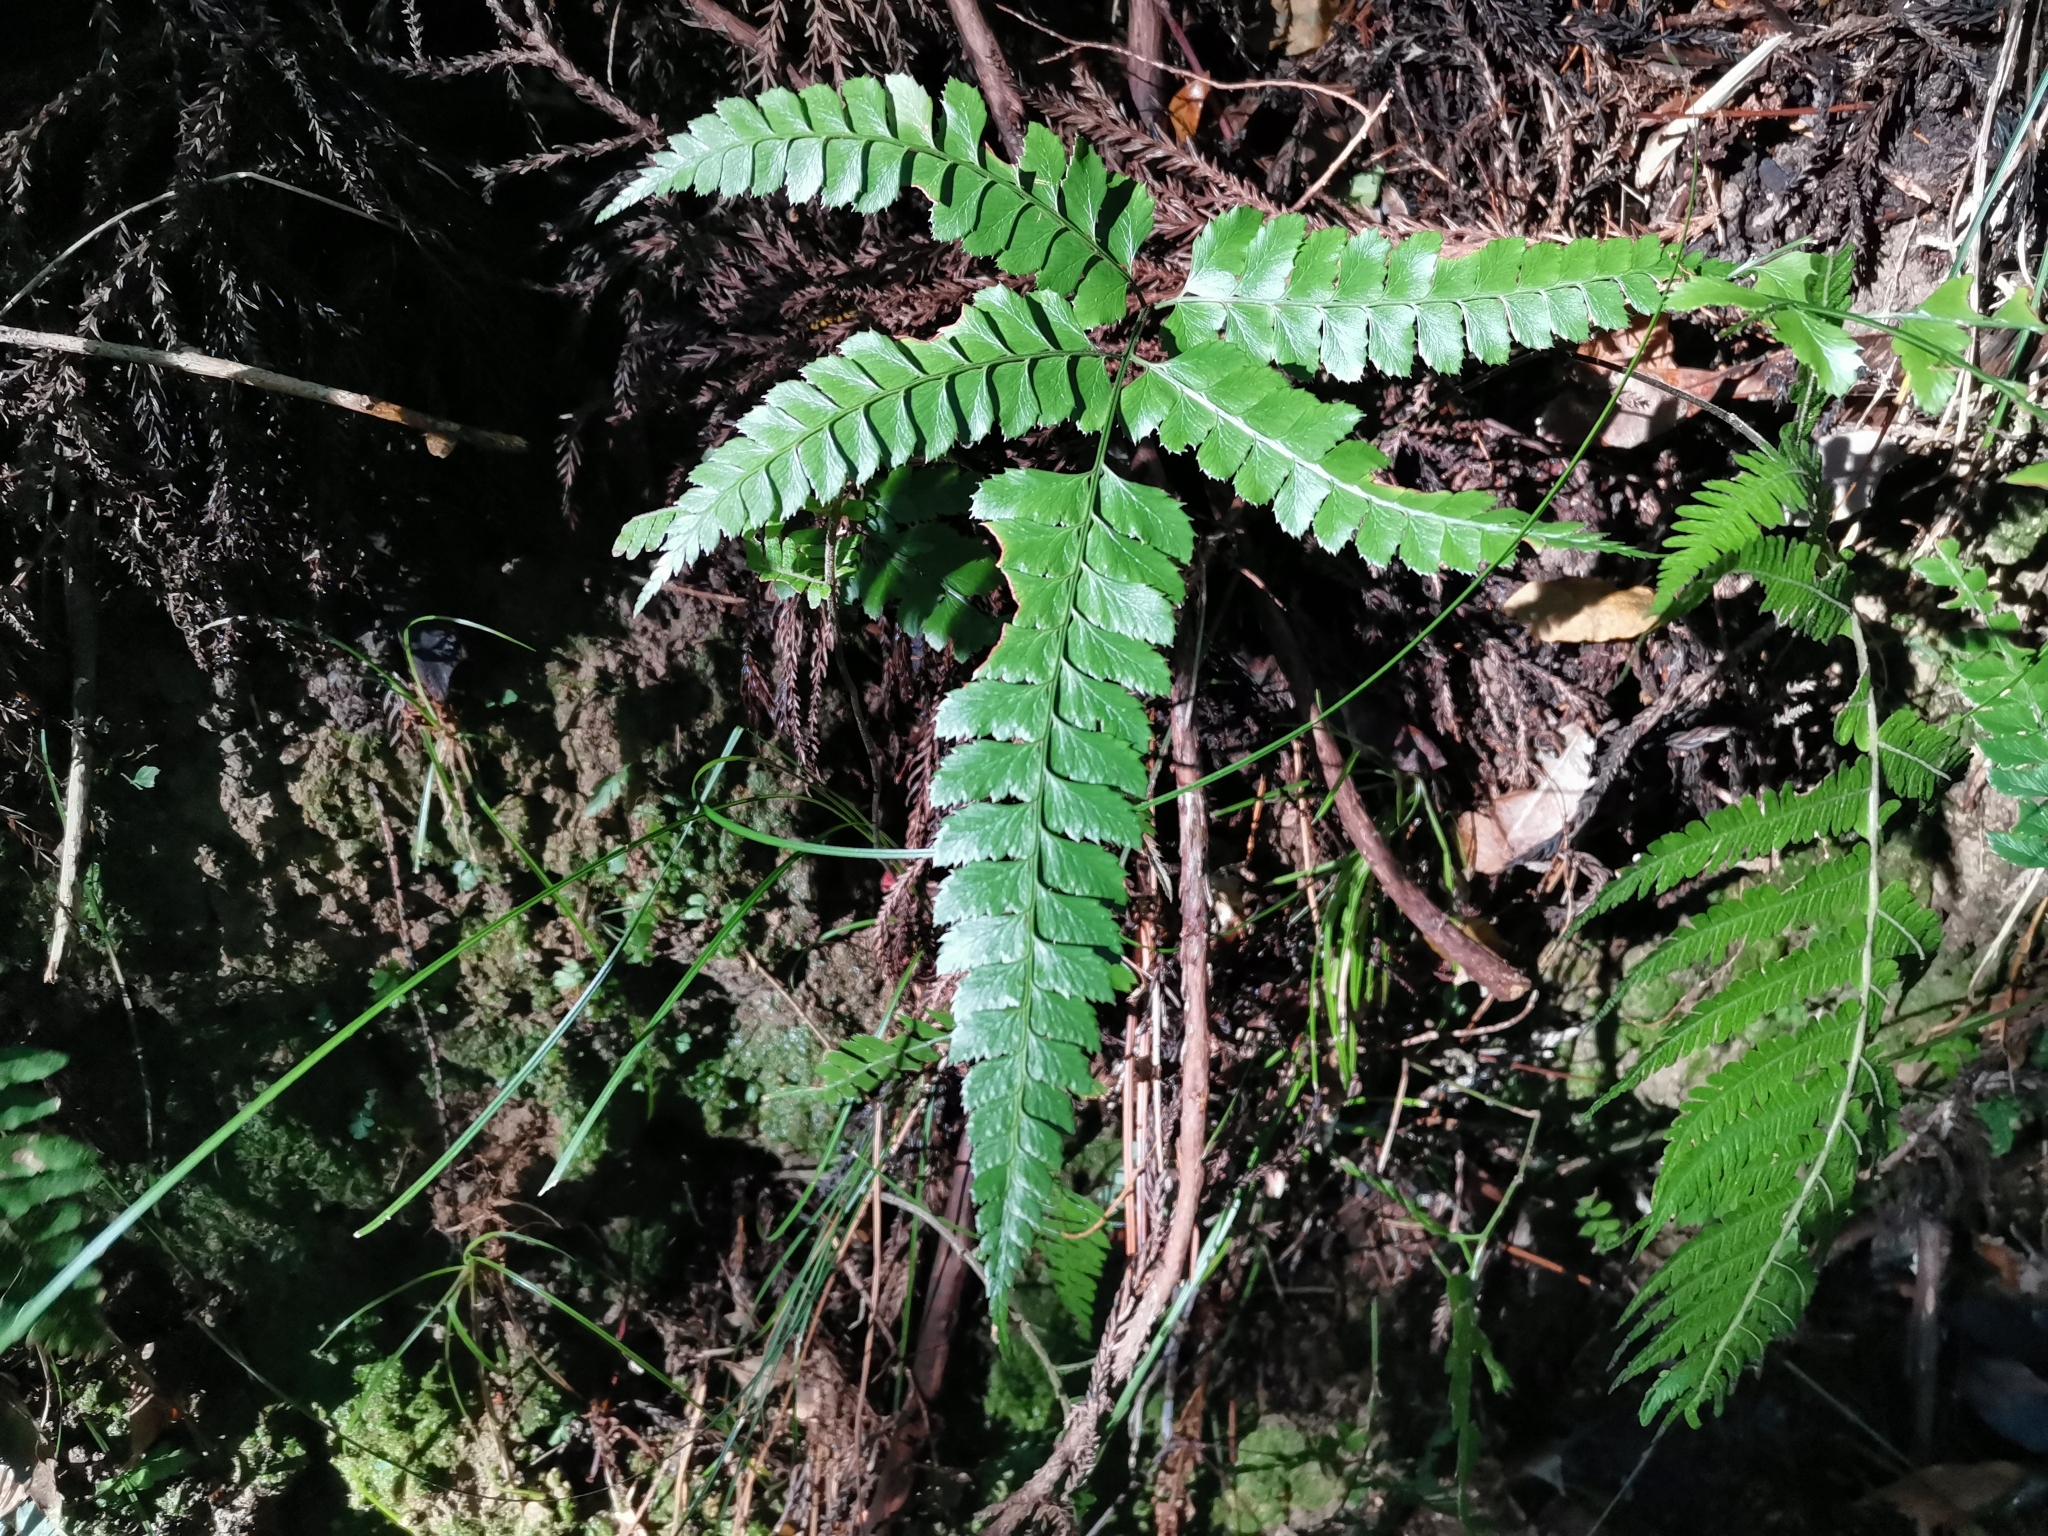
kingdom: Plantae
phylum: Tracheophyta
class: Polypodiopsida
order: Polypodiales
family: Dryopteridaceae
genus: Arachniodes
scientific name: Arachniodes rhomboidea
